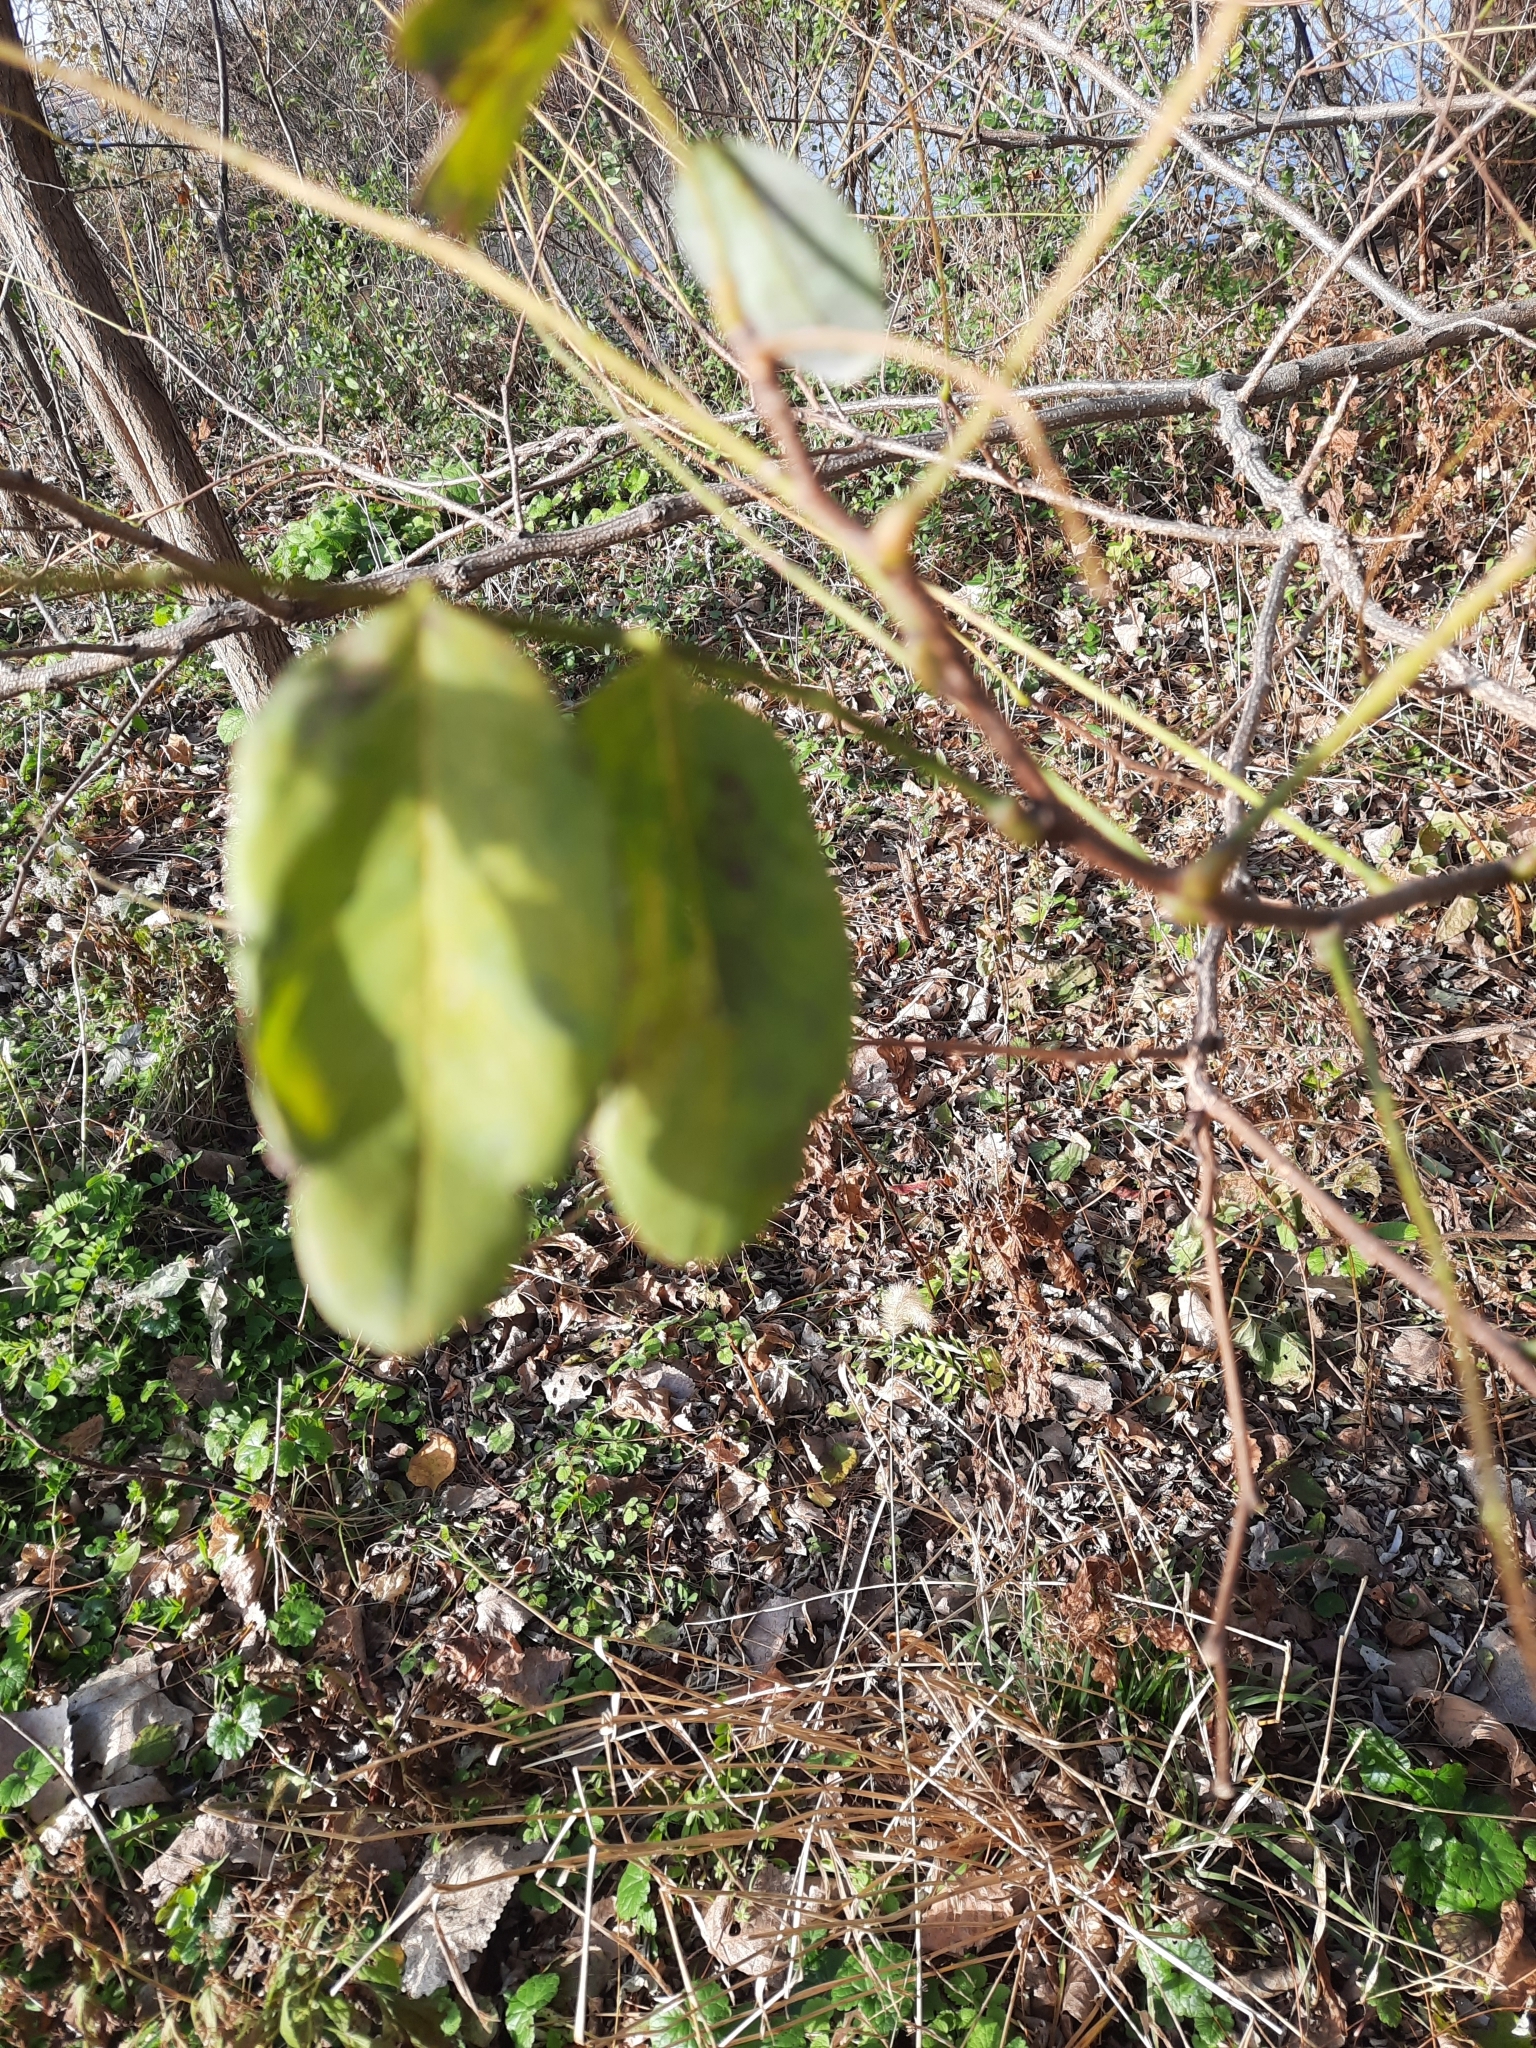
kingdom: Plantae
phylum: Tracheophyta
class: Magnoliopsida
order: Fabales
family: Fabaceae
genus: Robinia
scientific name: Robinia pseudoacacia
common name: Black locust
